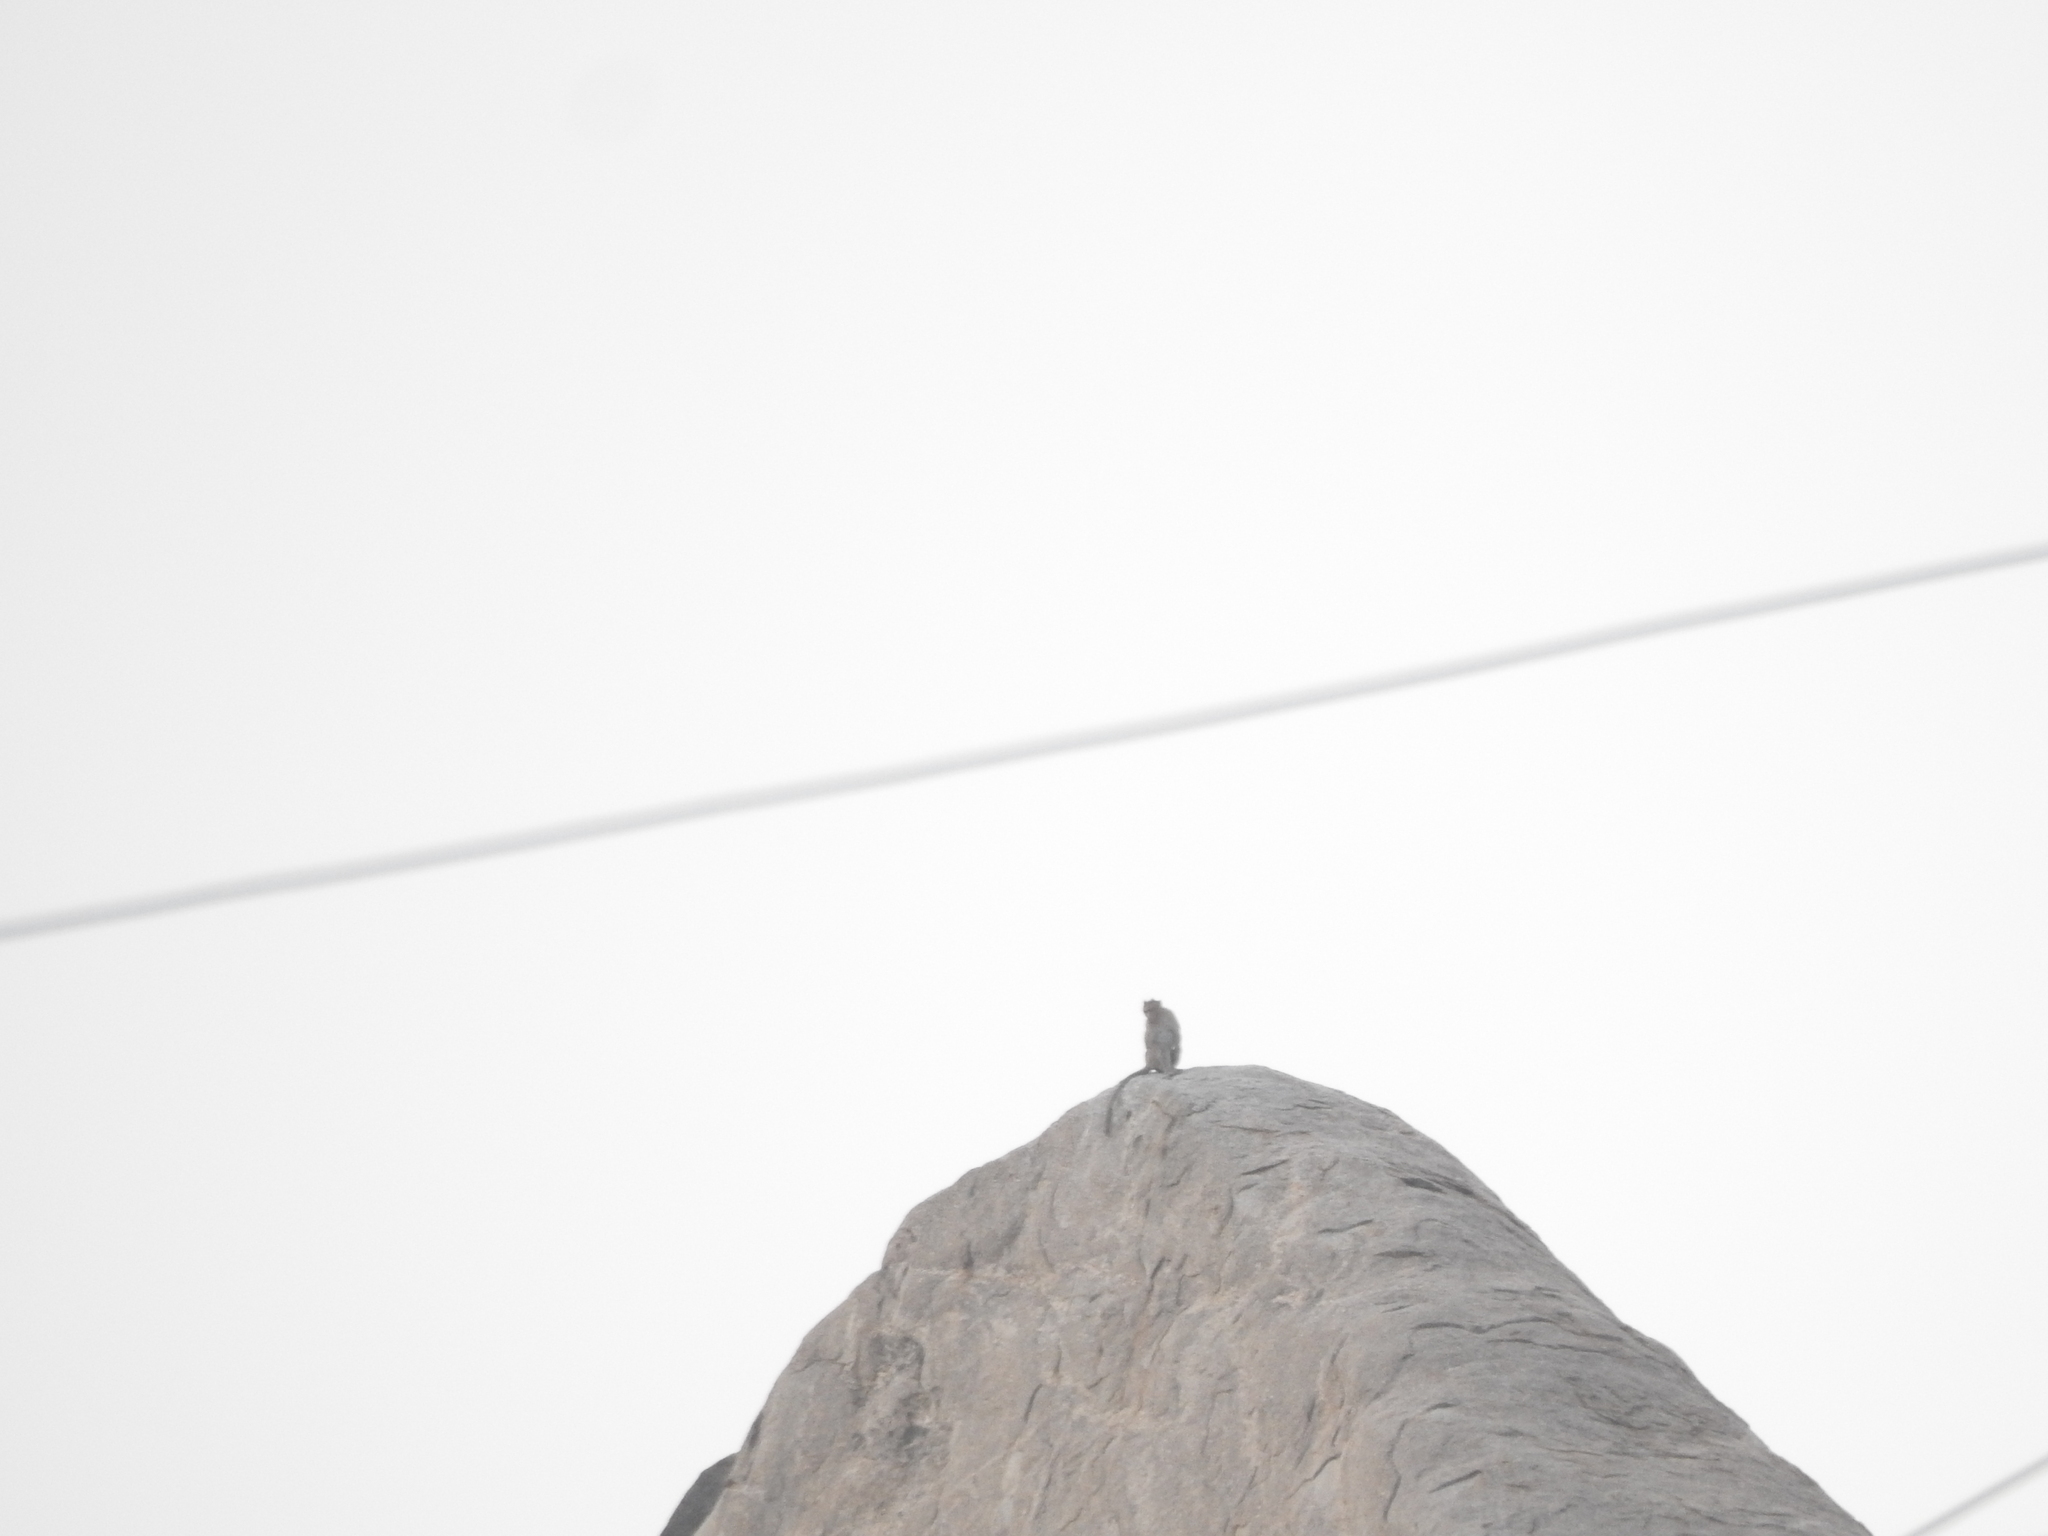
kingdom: Animalia
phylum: Chordata
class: Mammalia
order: Primates
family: Cercopithecidae
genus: Macaca
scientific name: Macaca radiata
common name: Bonnet macaque
